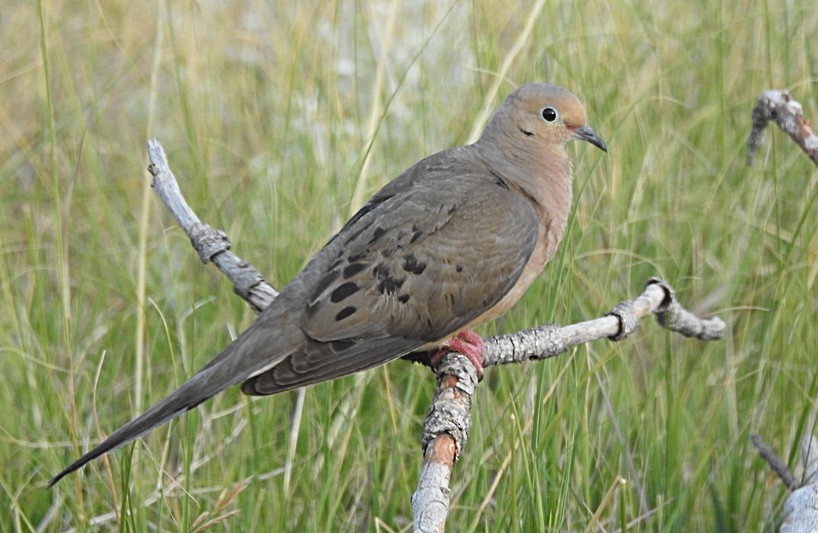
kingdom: Animalia
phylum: Chordata
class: Aves
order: Columbiformes
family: Columbidae
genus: Zenaida
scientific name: Zenaida macroura
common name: Mourning dove
